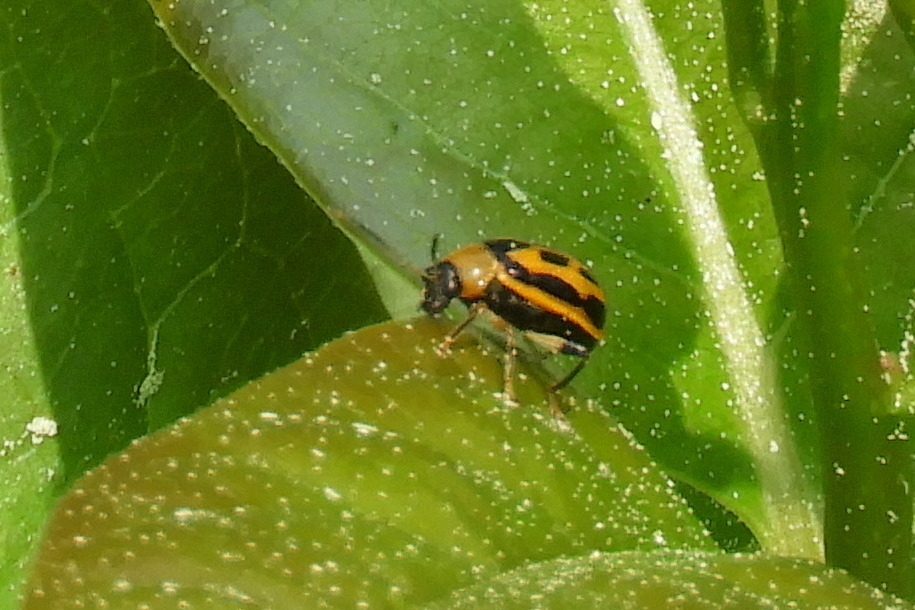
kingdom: Animalia
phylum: Arthropoda
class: Insecta
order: Coleoptera
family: Chrysomelidae
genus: Cerotoma
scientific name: Cerotoma trifurcata
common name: Bean leaf beetle
